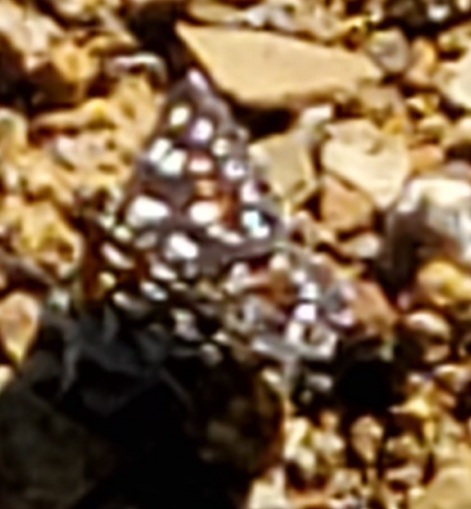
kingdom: Animalia
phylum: Arthropoda
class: Insecta
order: Lepidoptera
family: Riodinidae
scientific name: Riodinidae
